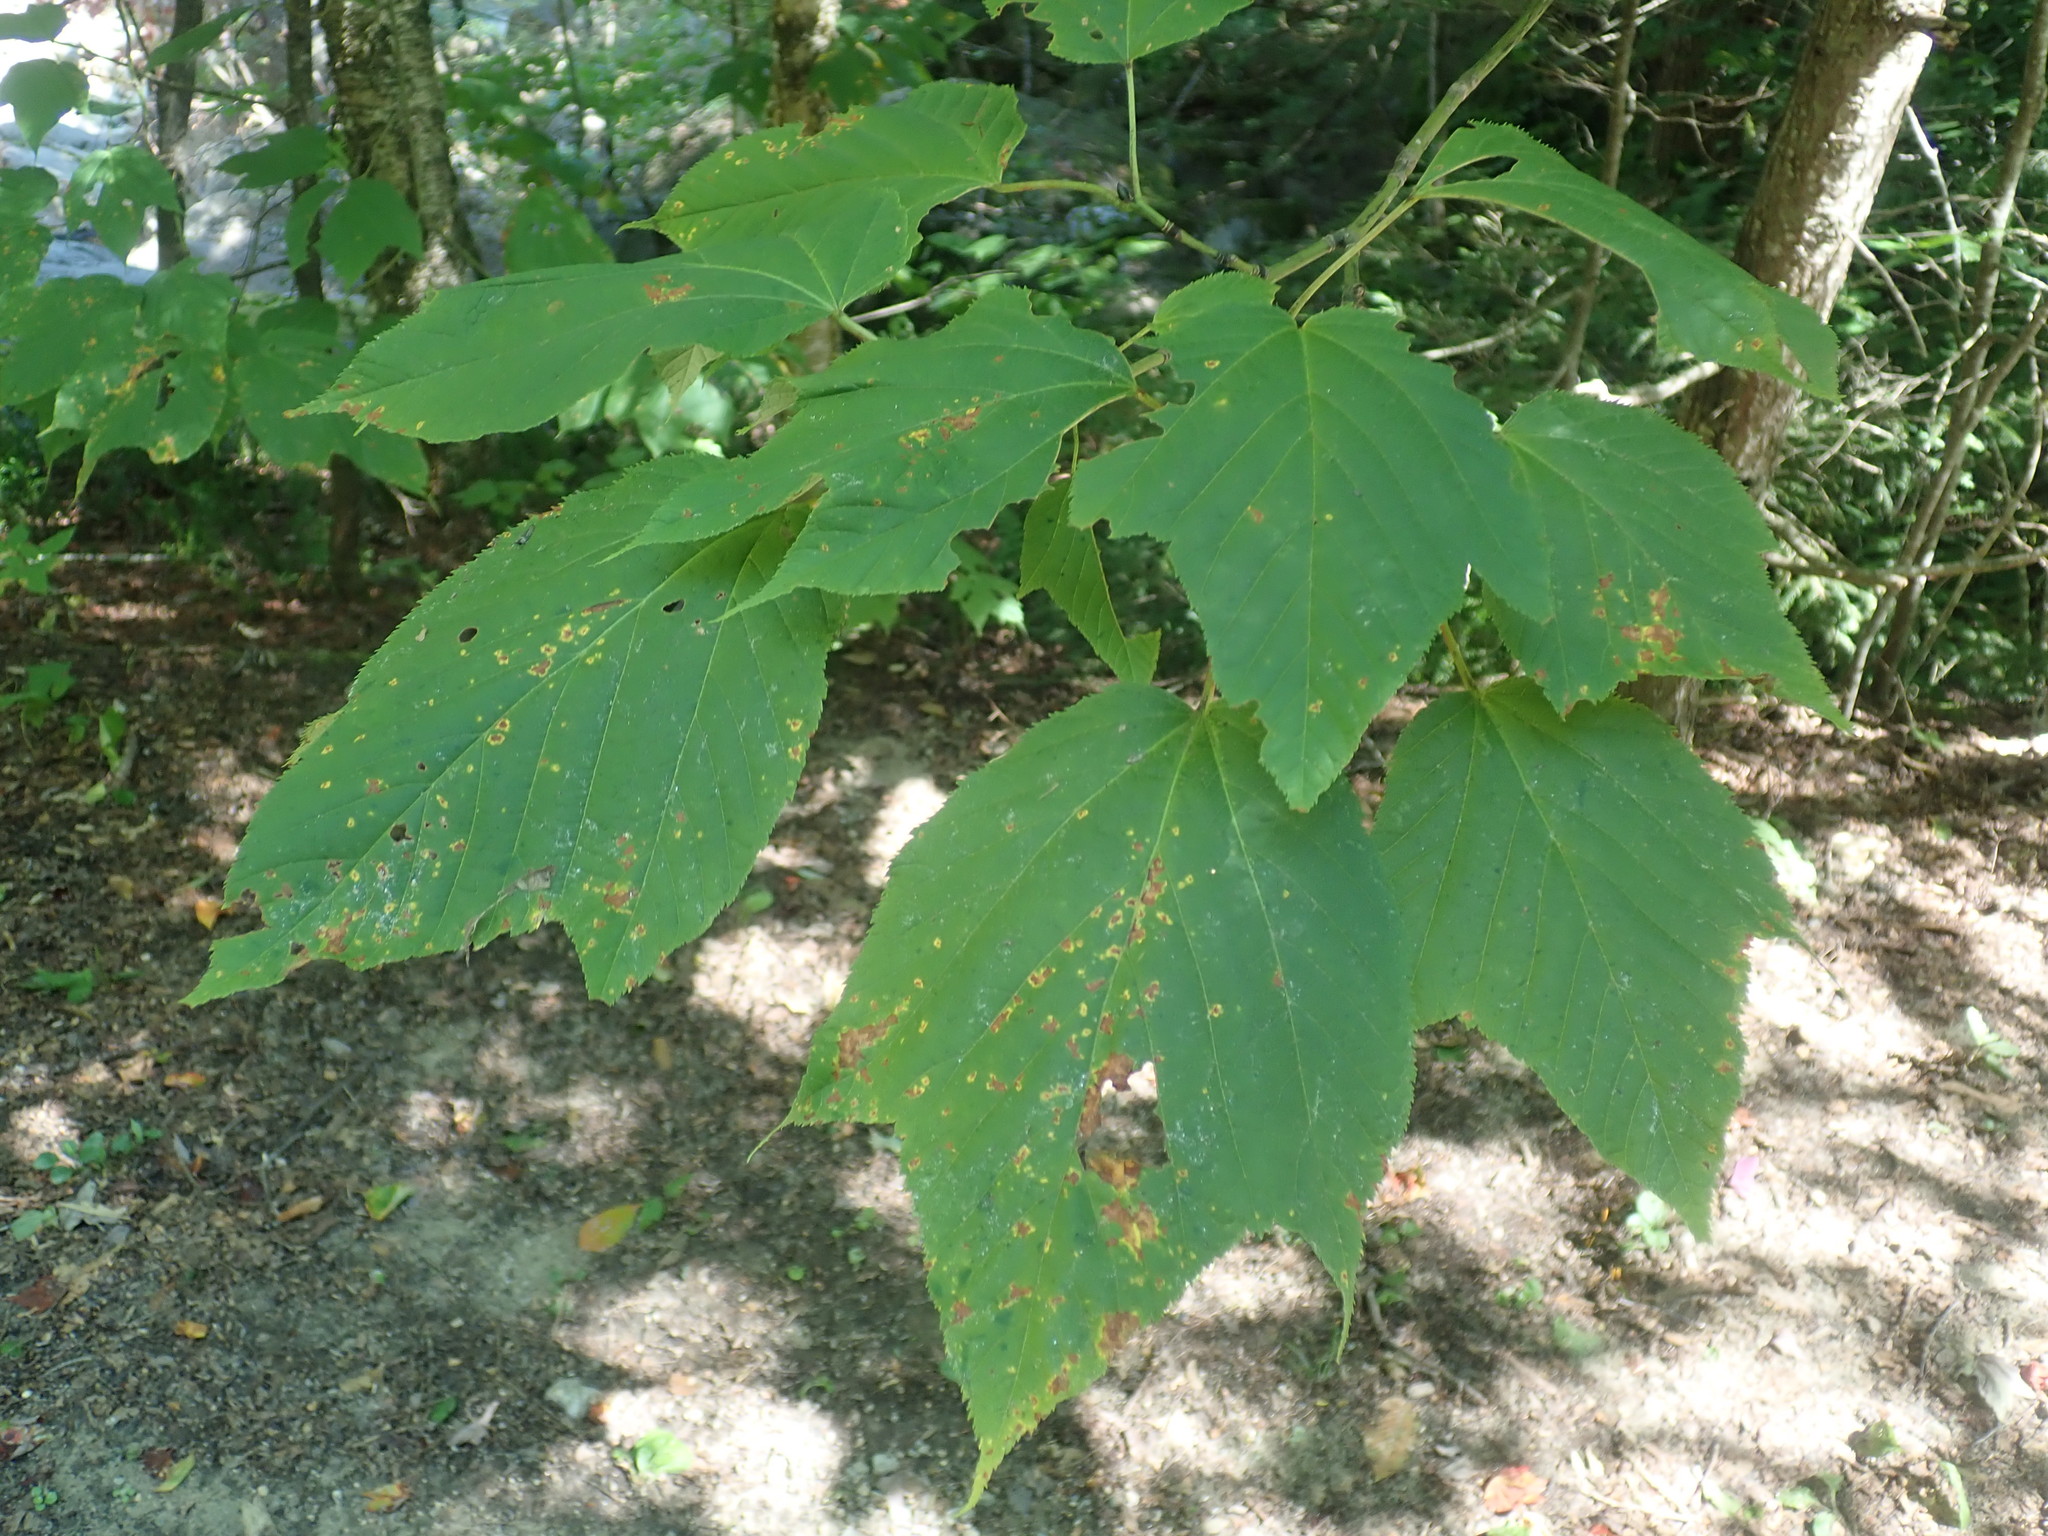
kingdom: Plantae
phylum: Tracheophyta
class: Magnoliopsida
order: Sapindales
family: Sapindaceae
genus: Acer
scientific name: Acer pensylvanicum
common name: Moosewood
